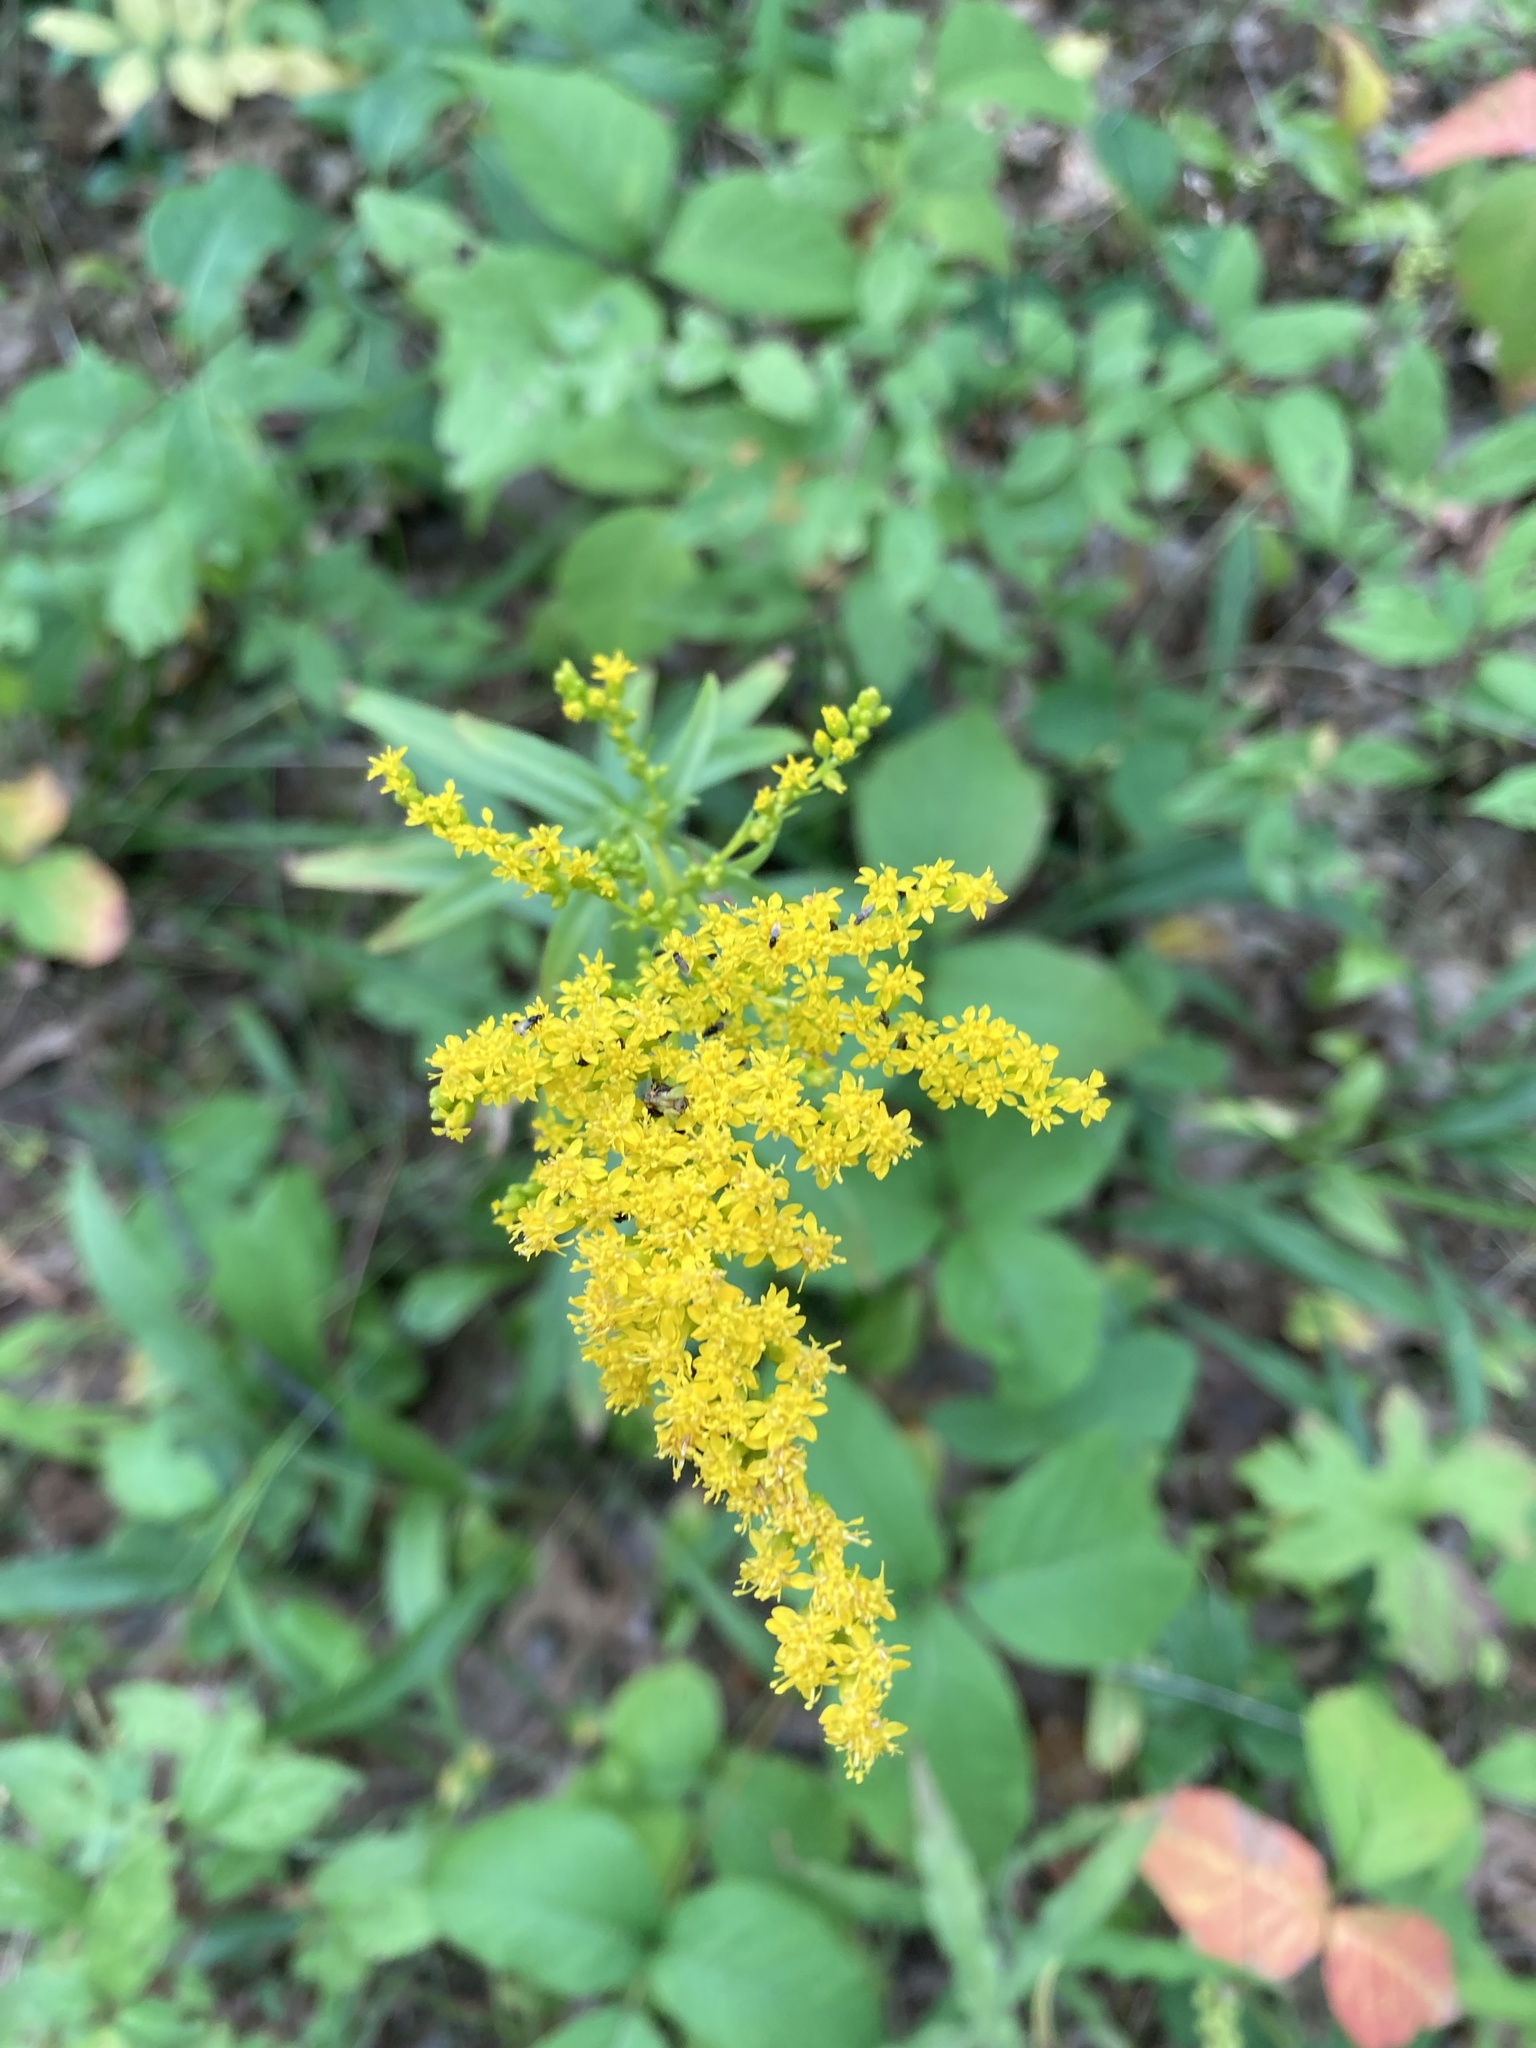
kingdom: Plantae
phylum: Tracheophyta
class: Magnoliopsida
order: Asterales
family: Asteraceae
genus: Solidago
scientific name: Solidago juncea
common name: Early goldenrod
